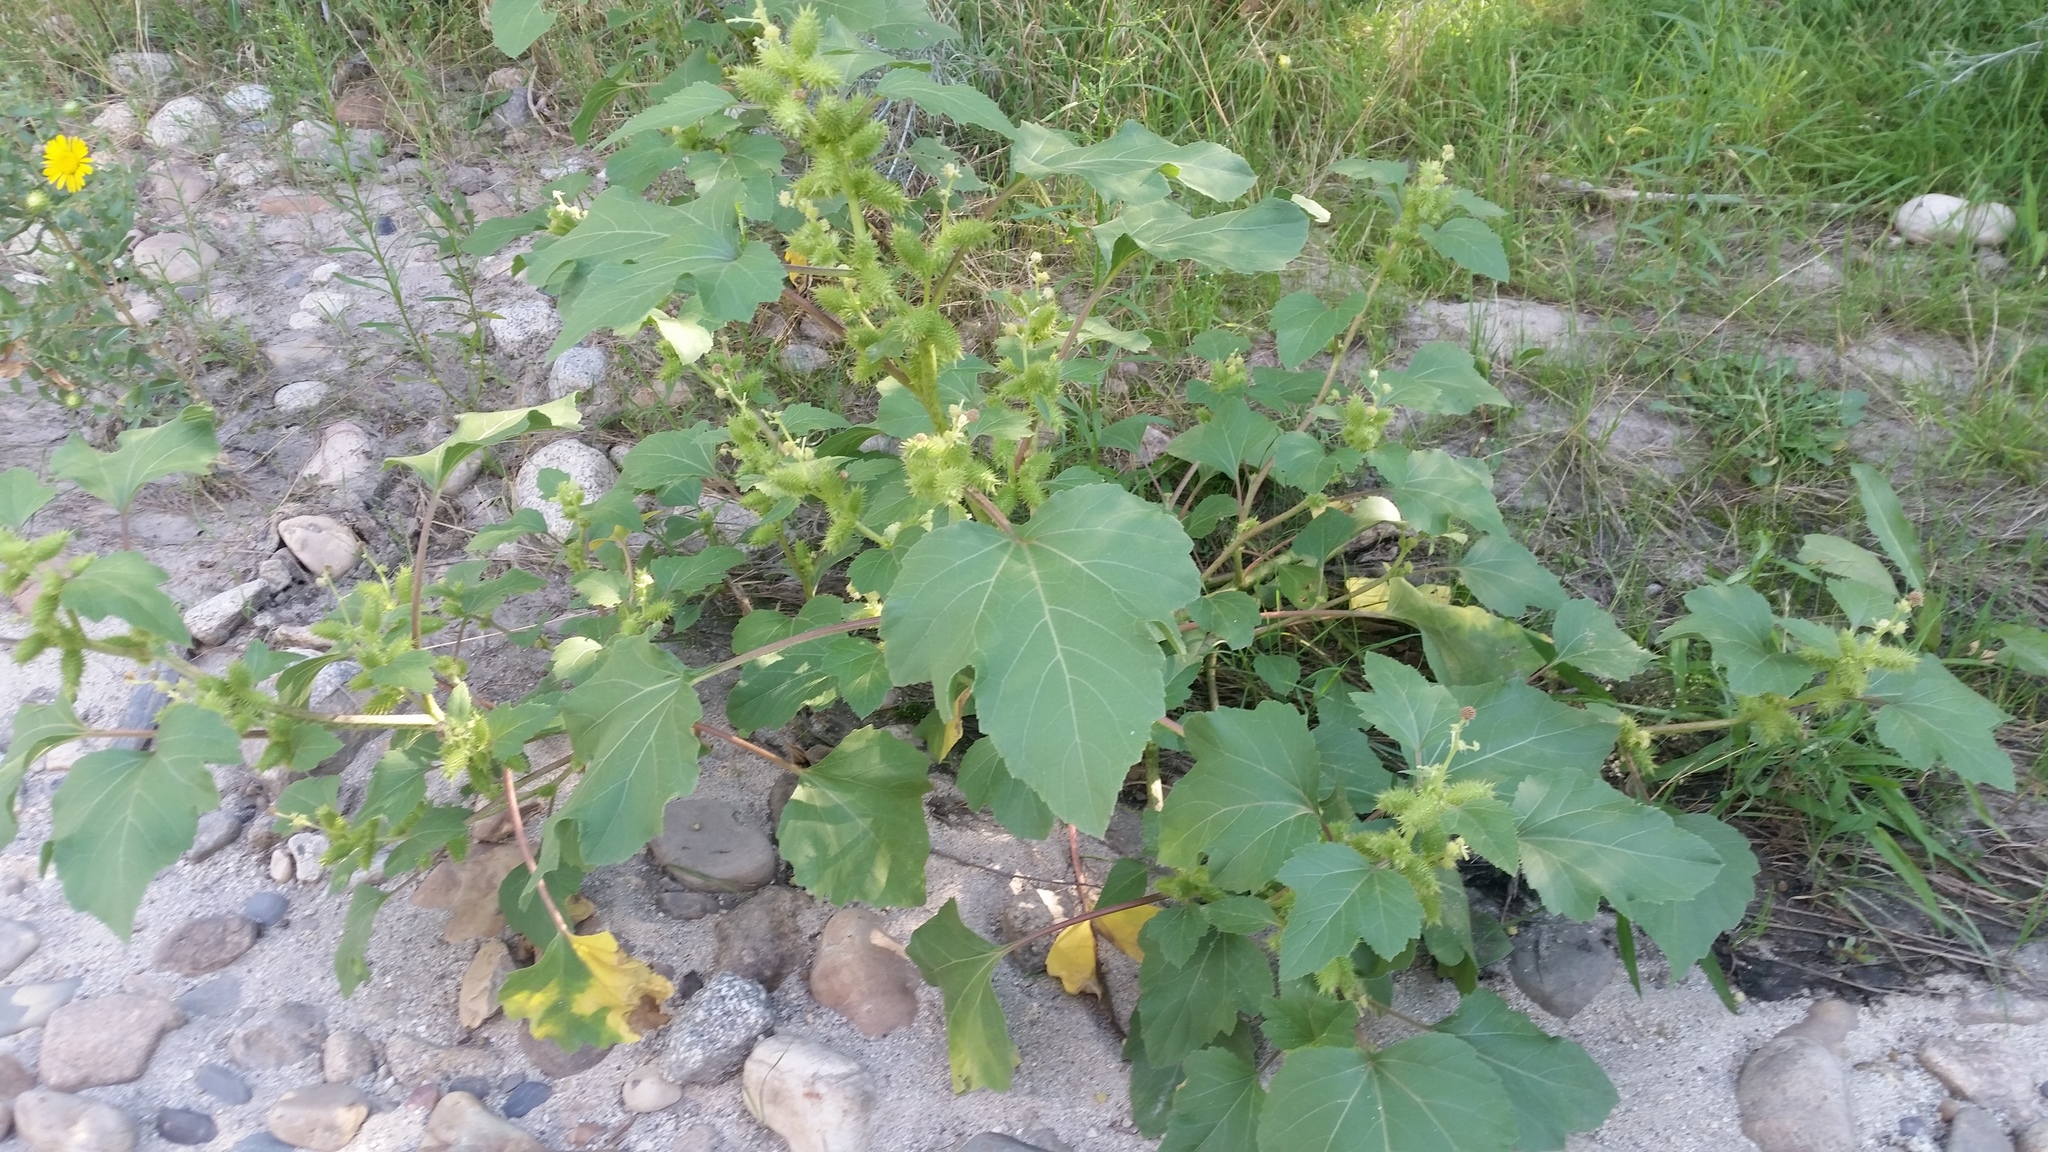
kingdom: Plantae
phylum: Tracheophyta
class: Magnoliopsida
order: Asterales
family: Asteraceae
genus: Xanthium
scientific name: Xanthium strumarium
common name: Rough cocklebur
